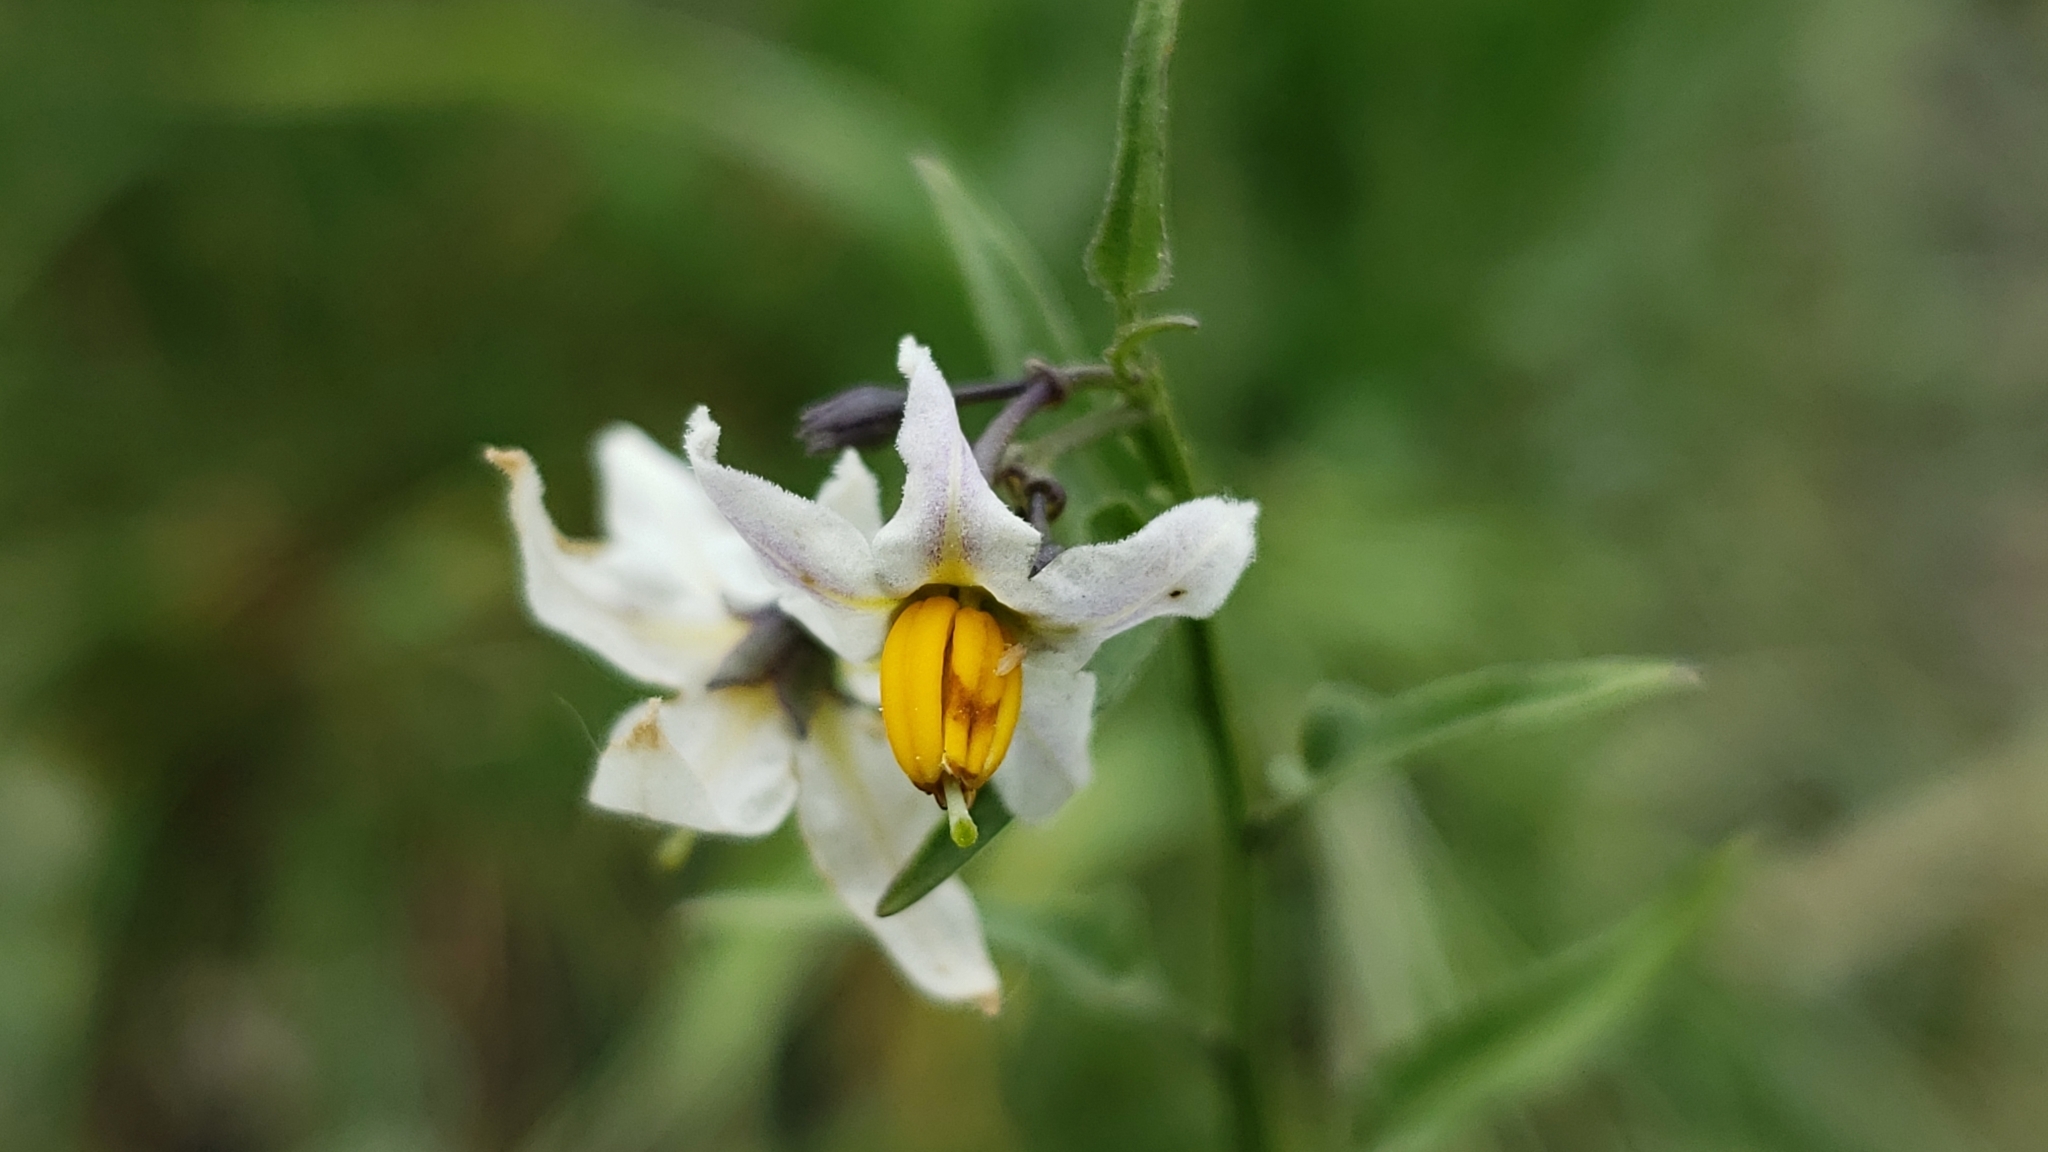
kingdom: Plantae
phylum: Tracheophyta
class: Magnoliopsida
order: Solanales
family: Solanaceae
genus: Solanum
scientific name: Solanum triquetrum
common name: Texas nightshade
